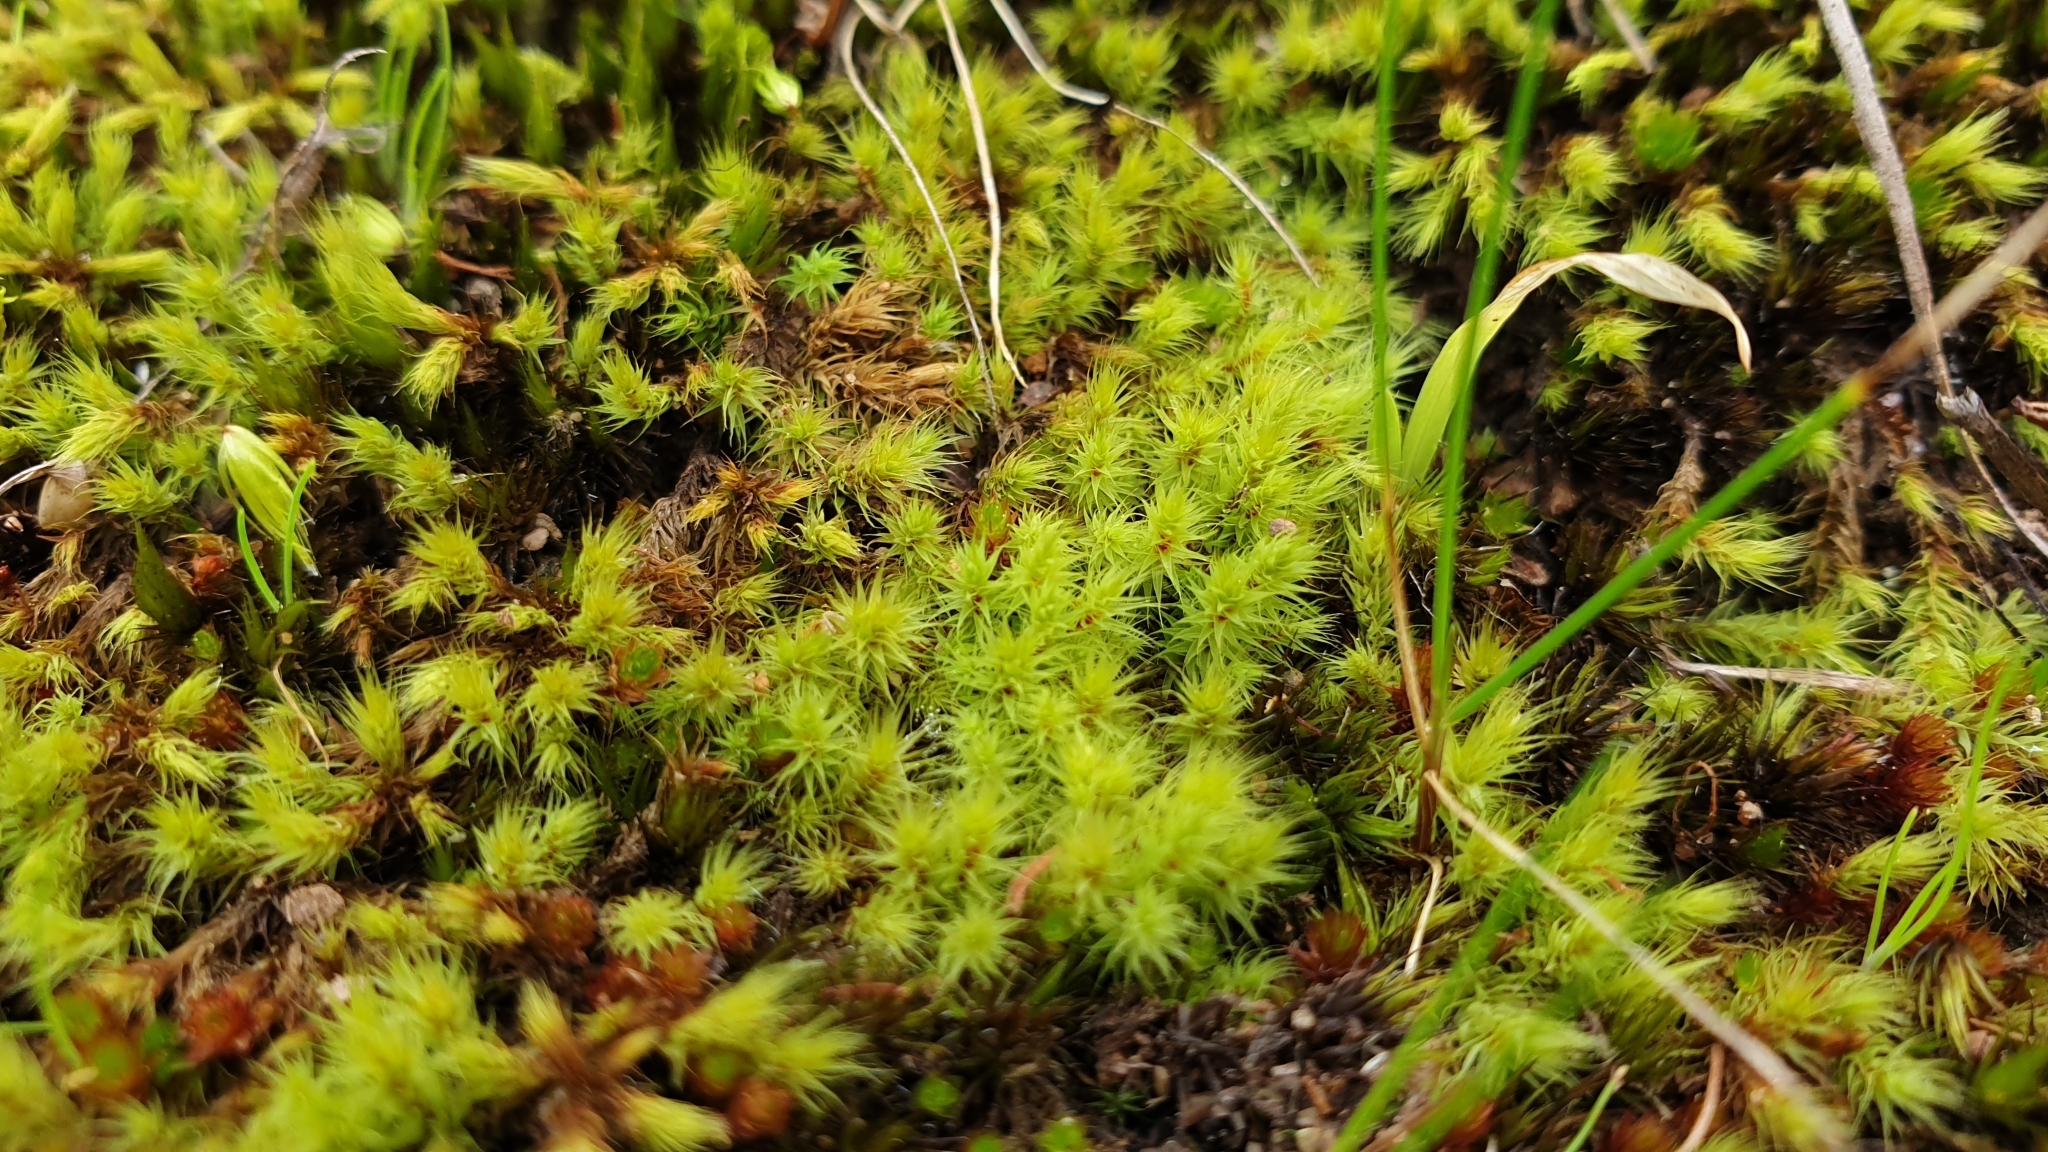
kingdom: Plantae
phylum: Bryophyta
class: Bryopsida
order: Bartramiales
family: Bartramiaceae
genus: Breutelia
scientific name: Breutelia affinis
